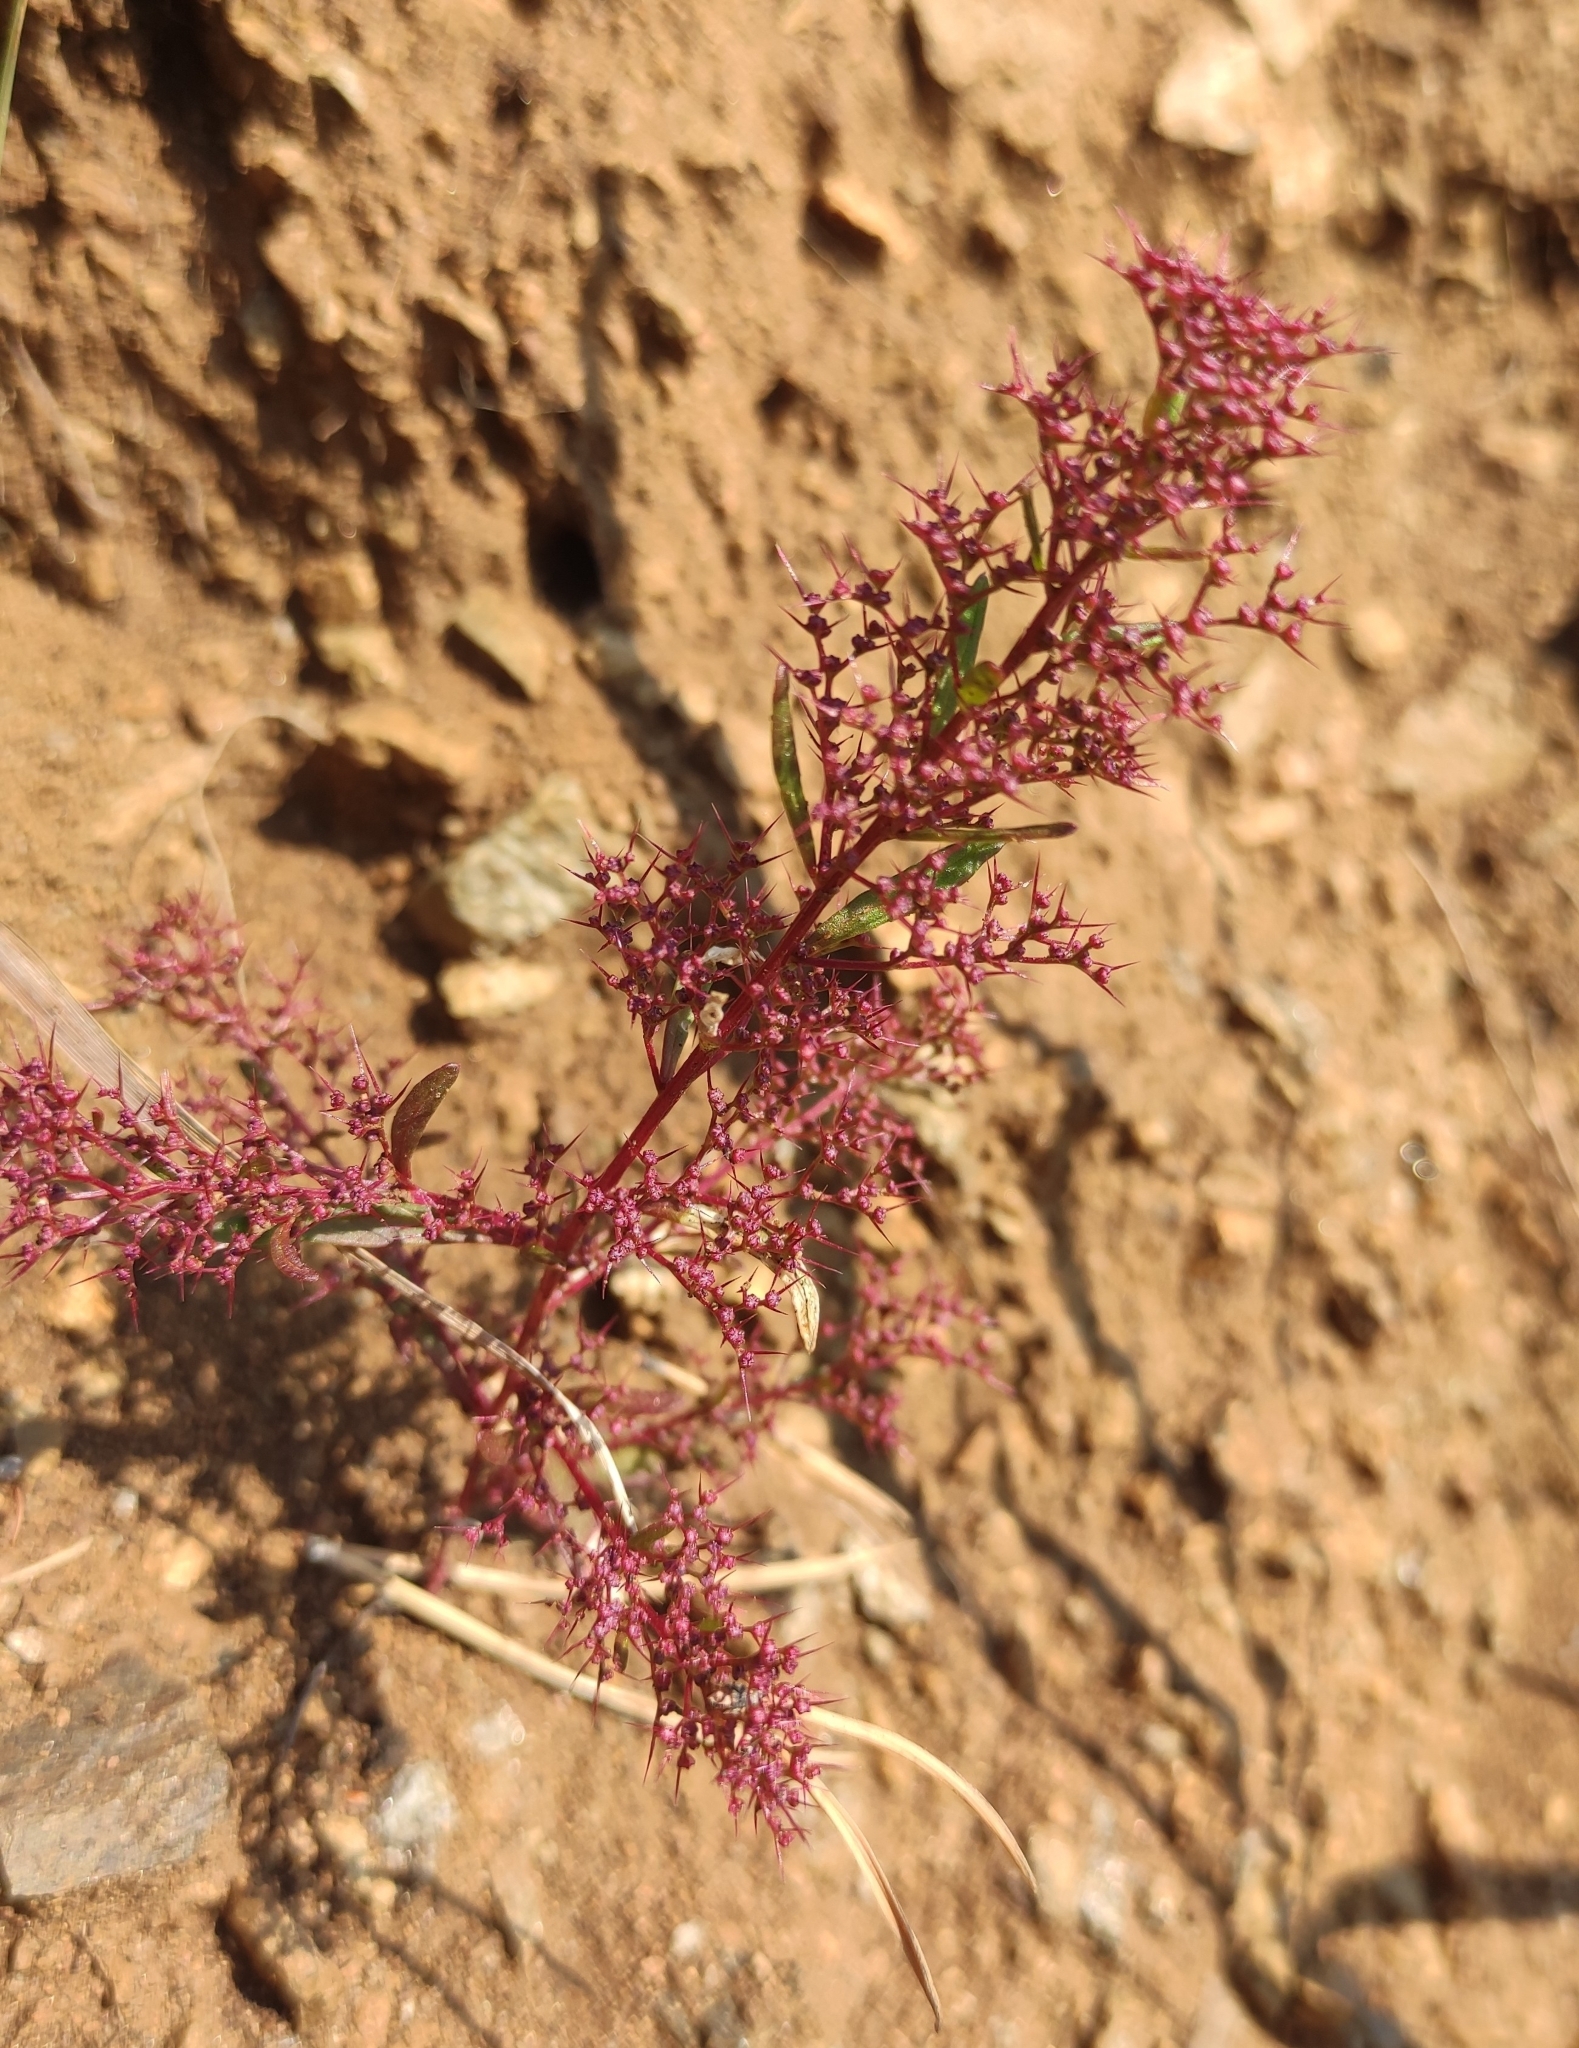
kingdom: Plantae
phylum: Tracheophyta
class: Magnoliopsida
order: Caryophyllales
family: Amaranthaceae
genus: Teloxys
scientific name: Teloxys aristata
